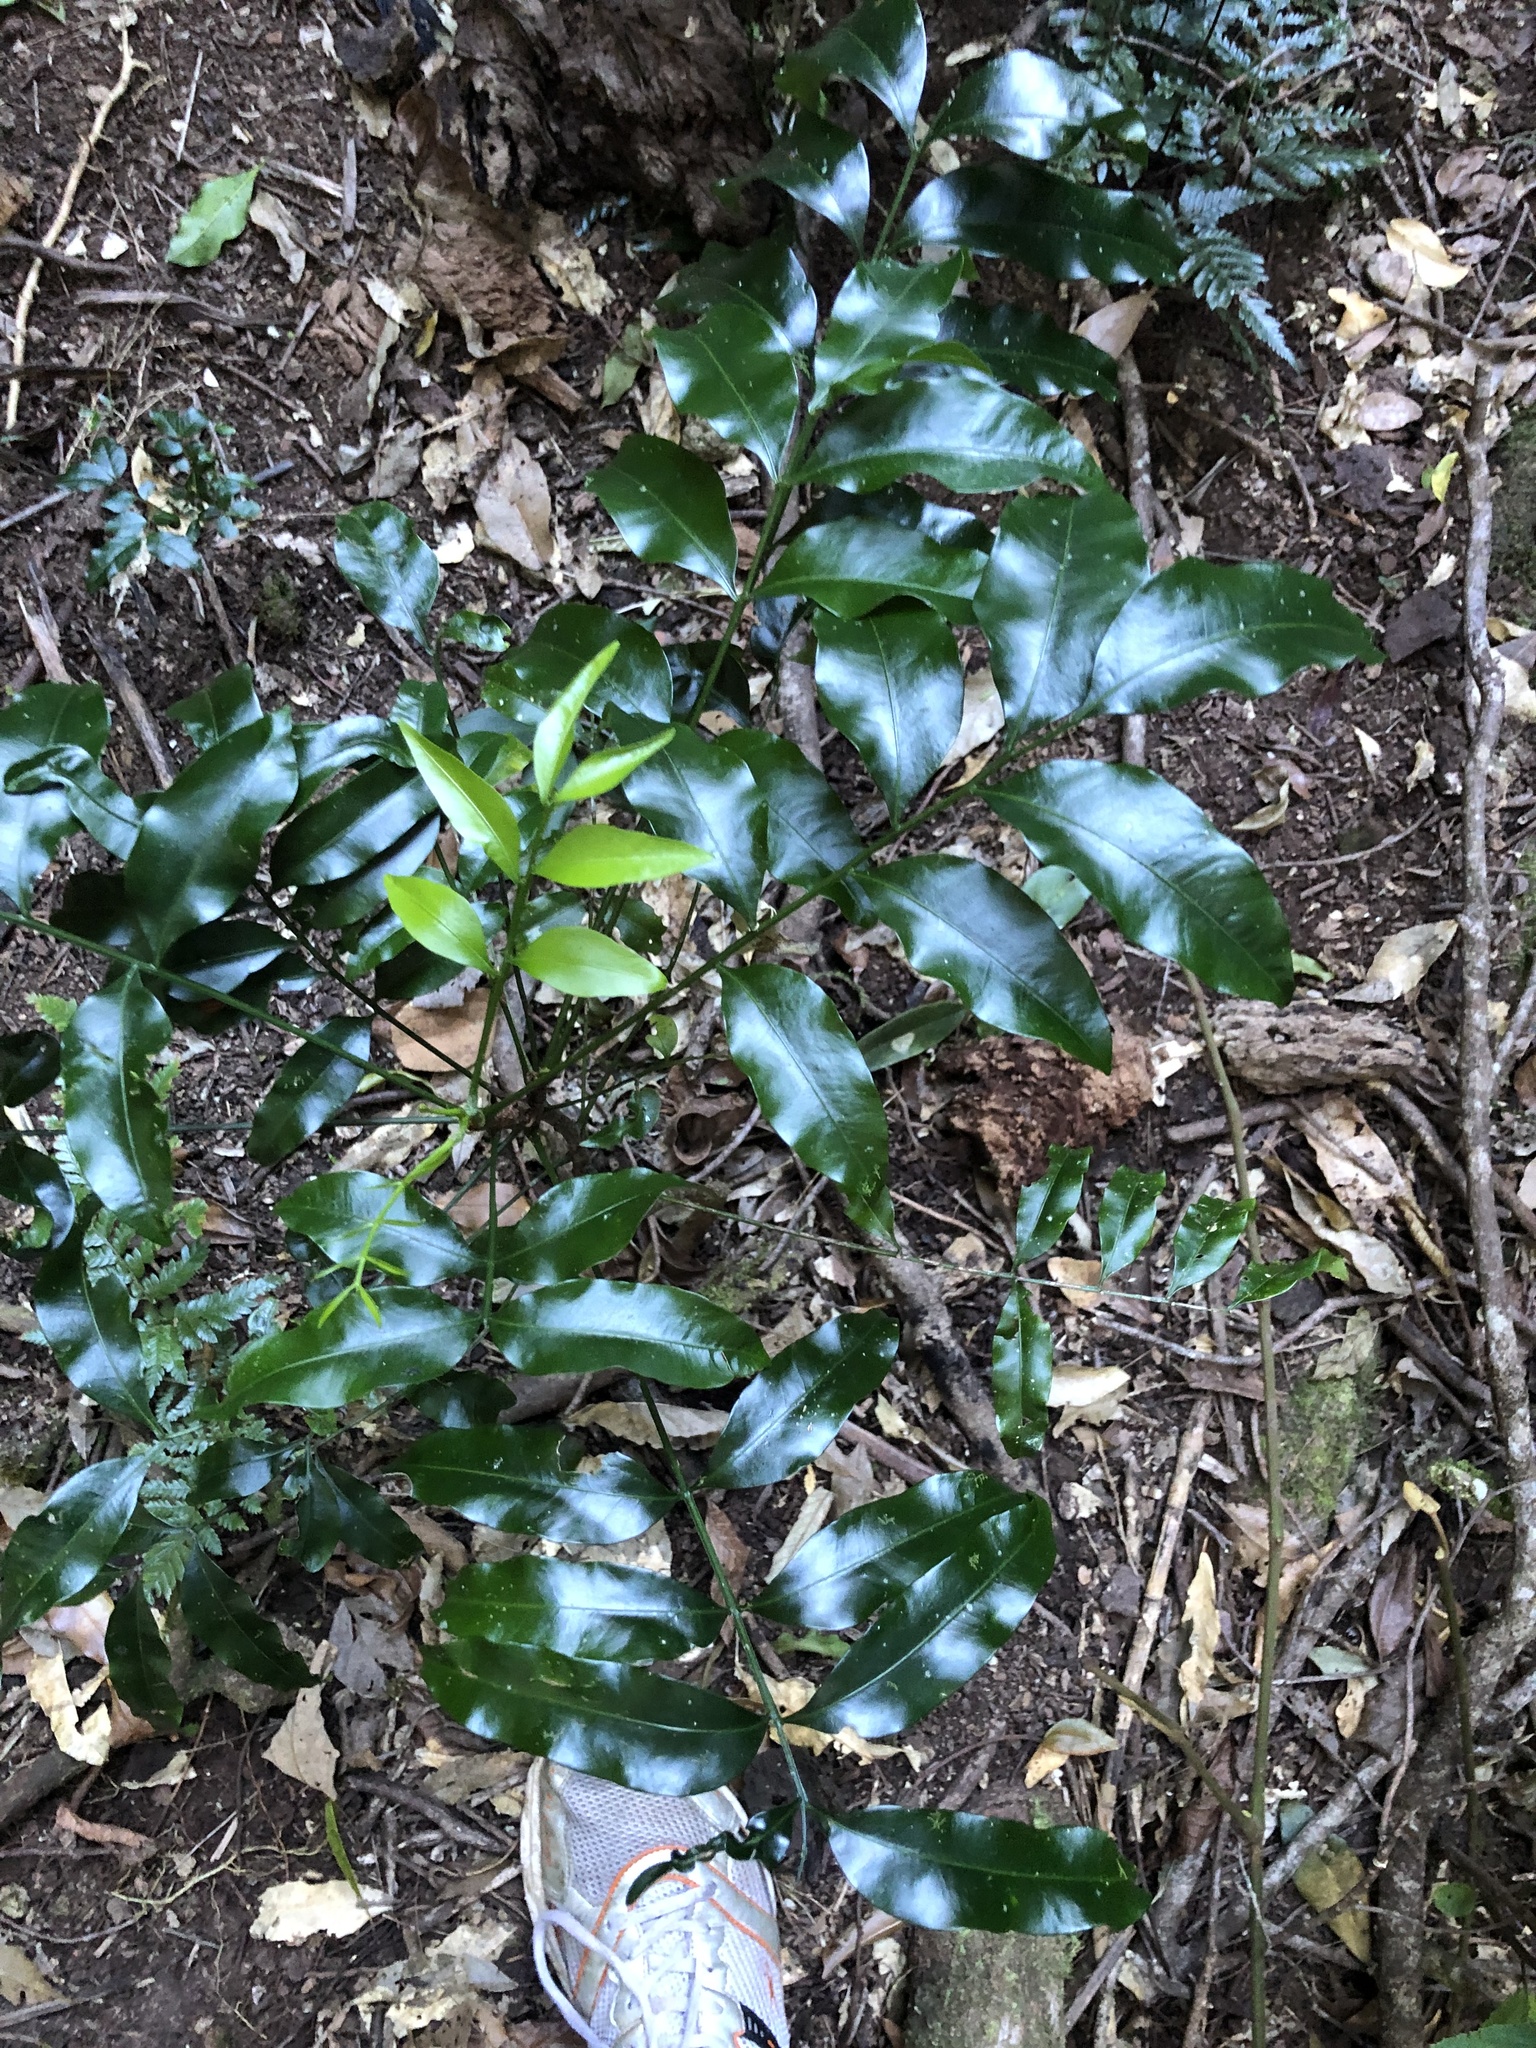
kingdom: Plantae
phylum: Tracheophyta
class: Magnoliopsida
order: Sapindales
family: Meliaceae
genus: Owenia
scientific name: Owenia cepiodora
